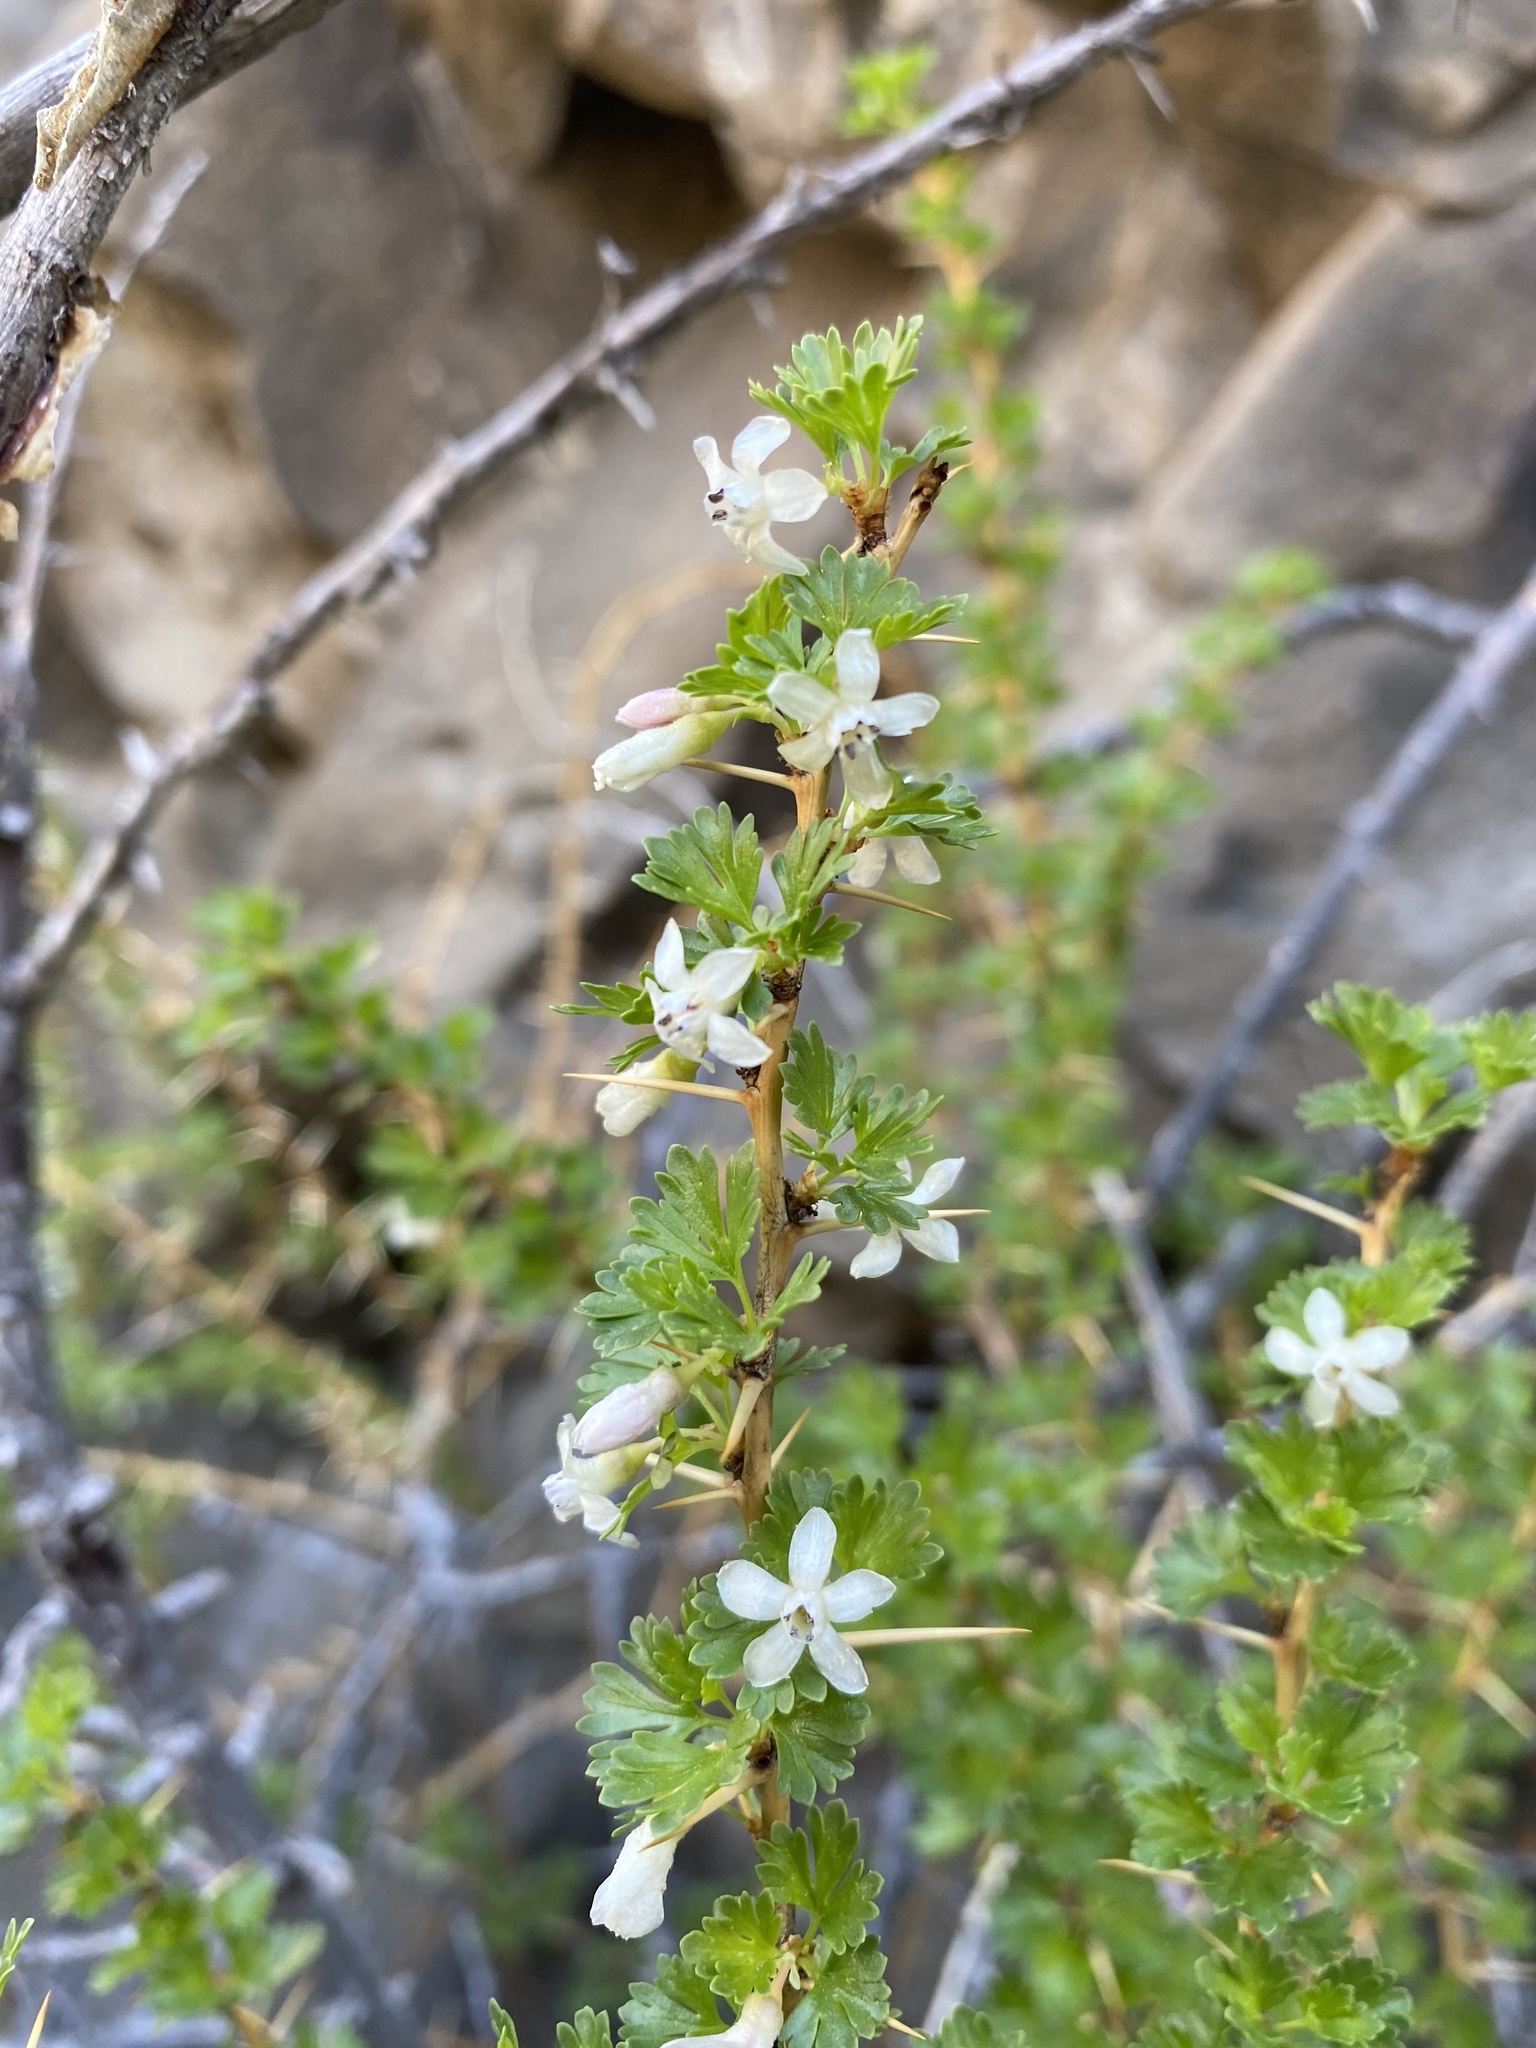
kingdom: Plantae
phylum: Tracheophyta
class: Magnoliopsida
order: Saxifragales
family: Grossulariaceae
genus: Ribes
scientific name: Ribes velutinum
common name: Desert gooseberry
